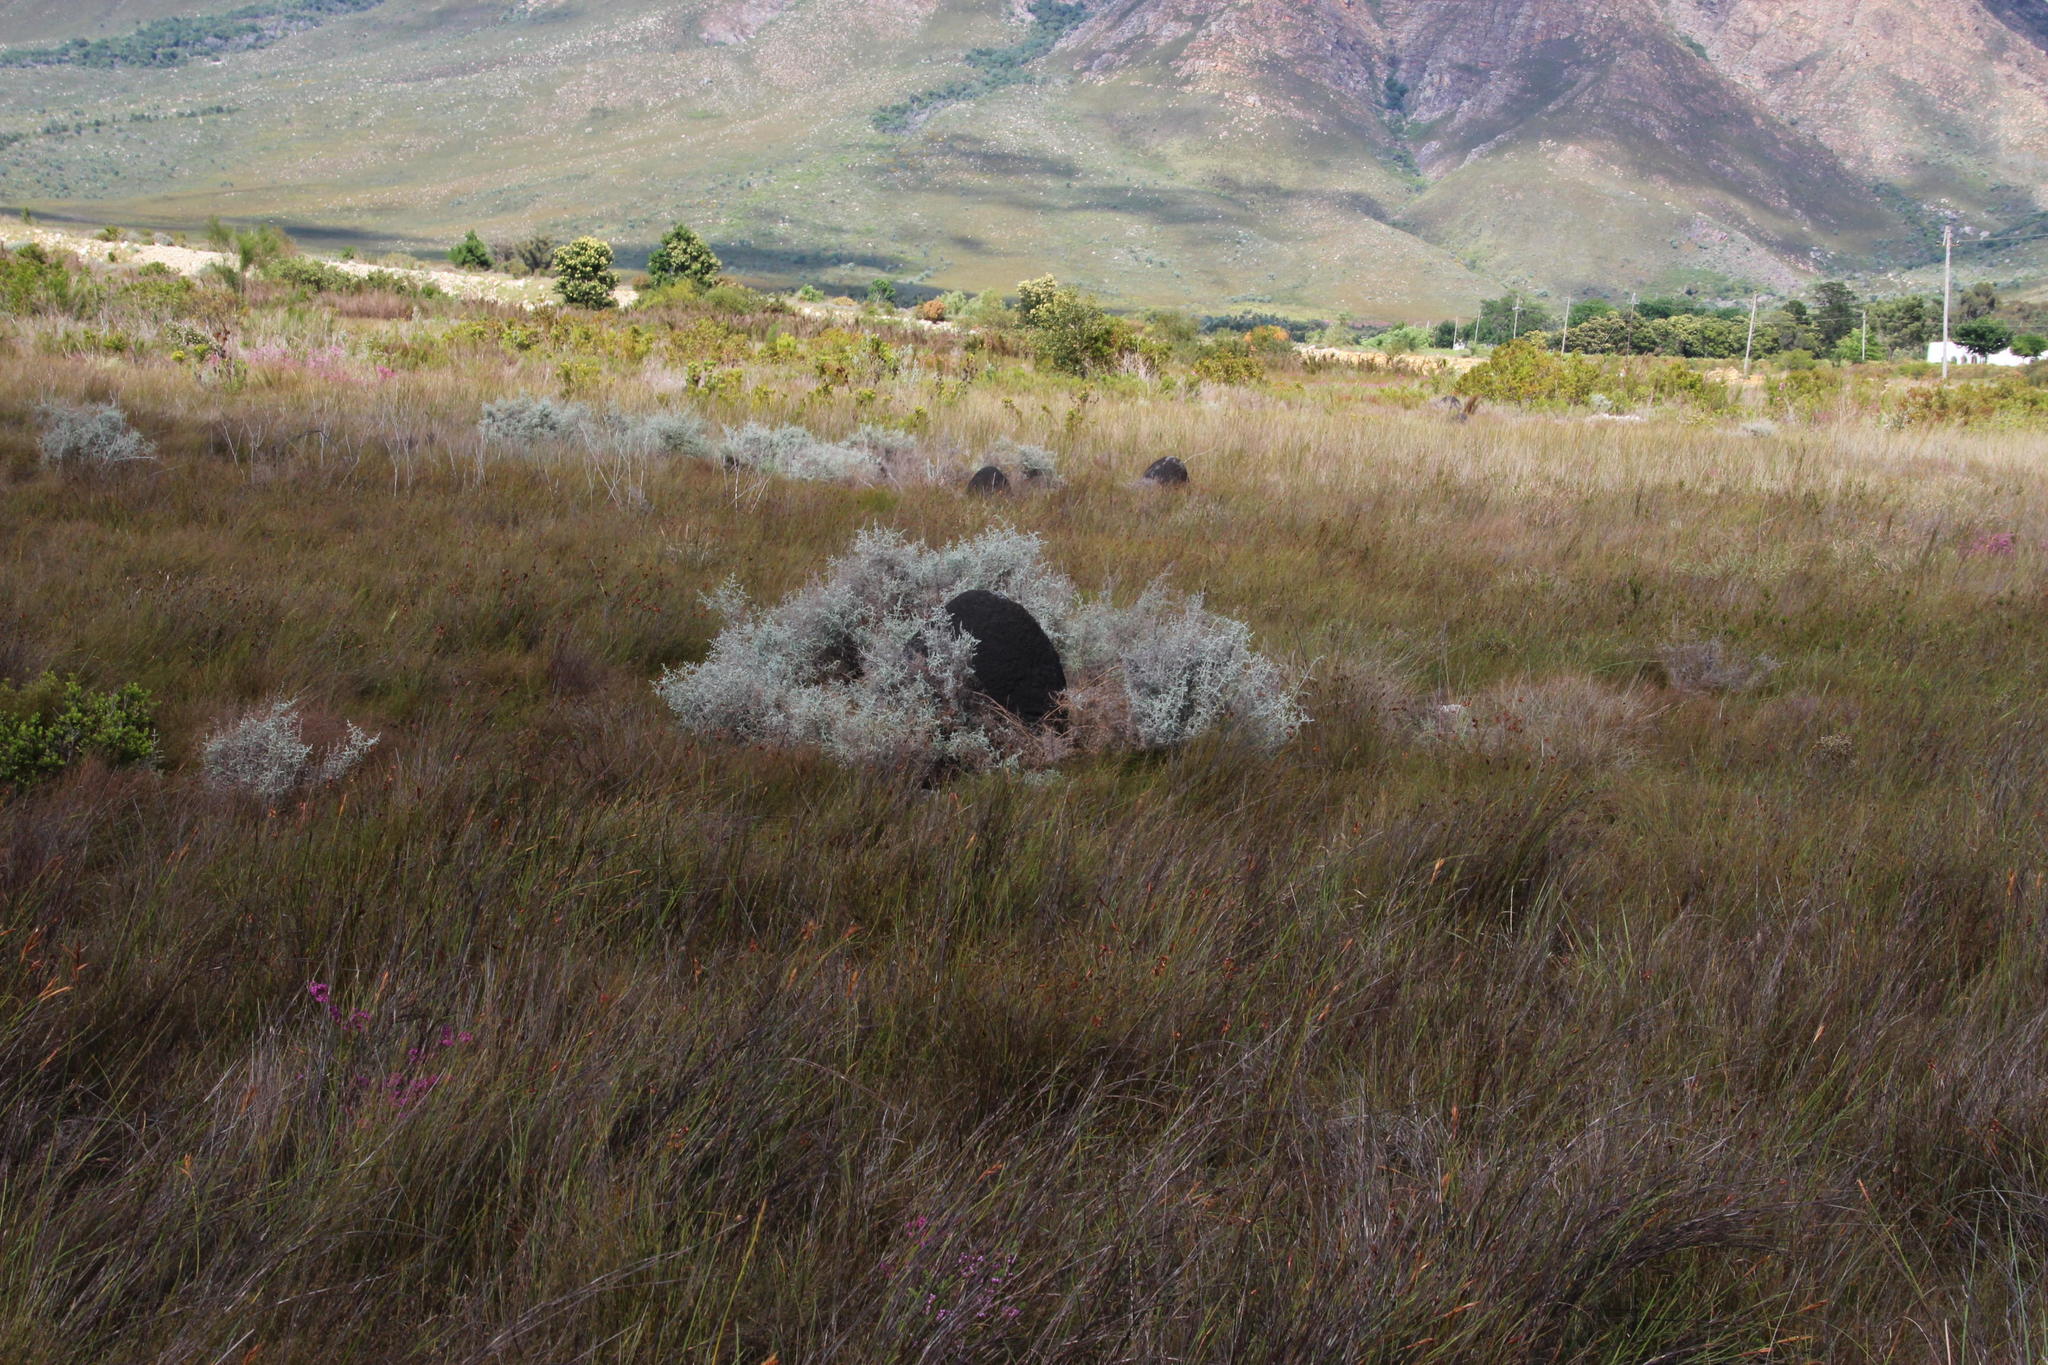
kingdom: Plantae
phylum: Tracheophyta
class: Magnoliopsida
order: Asterales
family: Asteraceae
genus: Seriphium
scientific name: Seriphium plumosum
